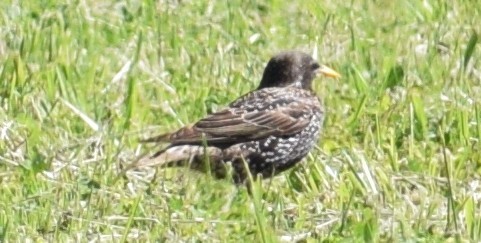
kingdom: Animalia
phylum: Chordata
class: Aves
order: Passeriformes
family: Sturnidae
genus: Sturnus
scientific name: Sturnus vulgaris
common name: Common starling
